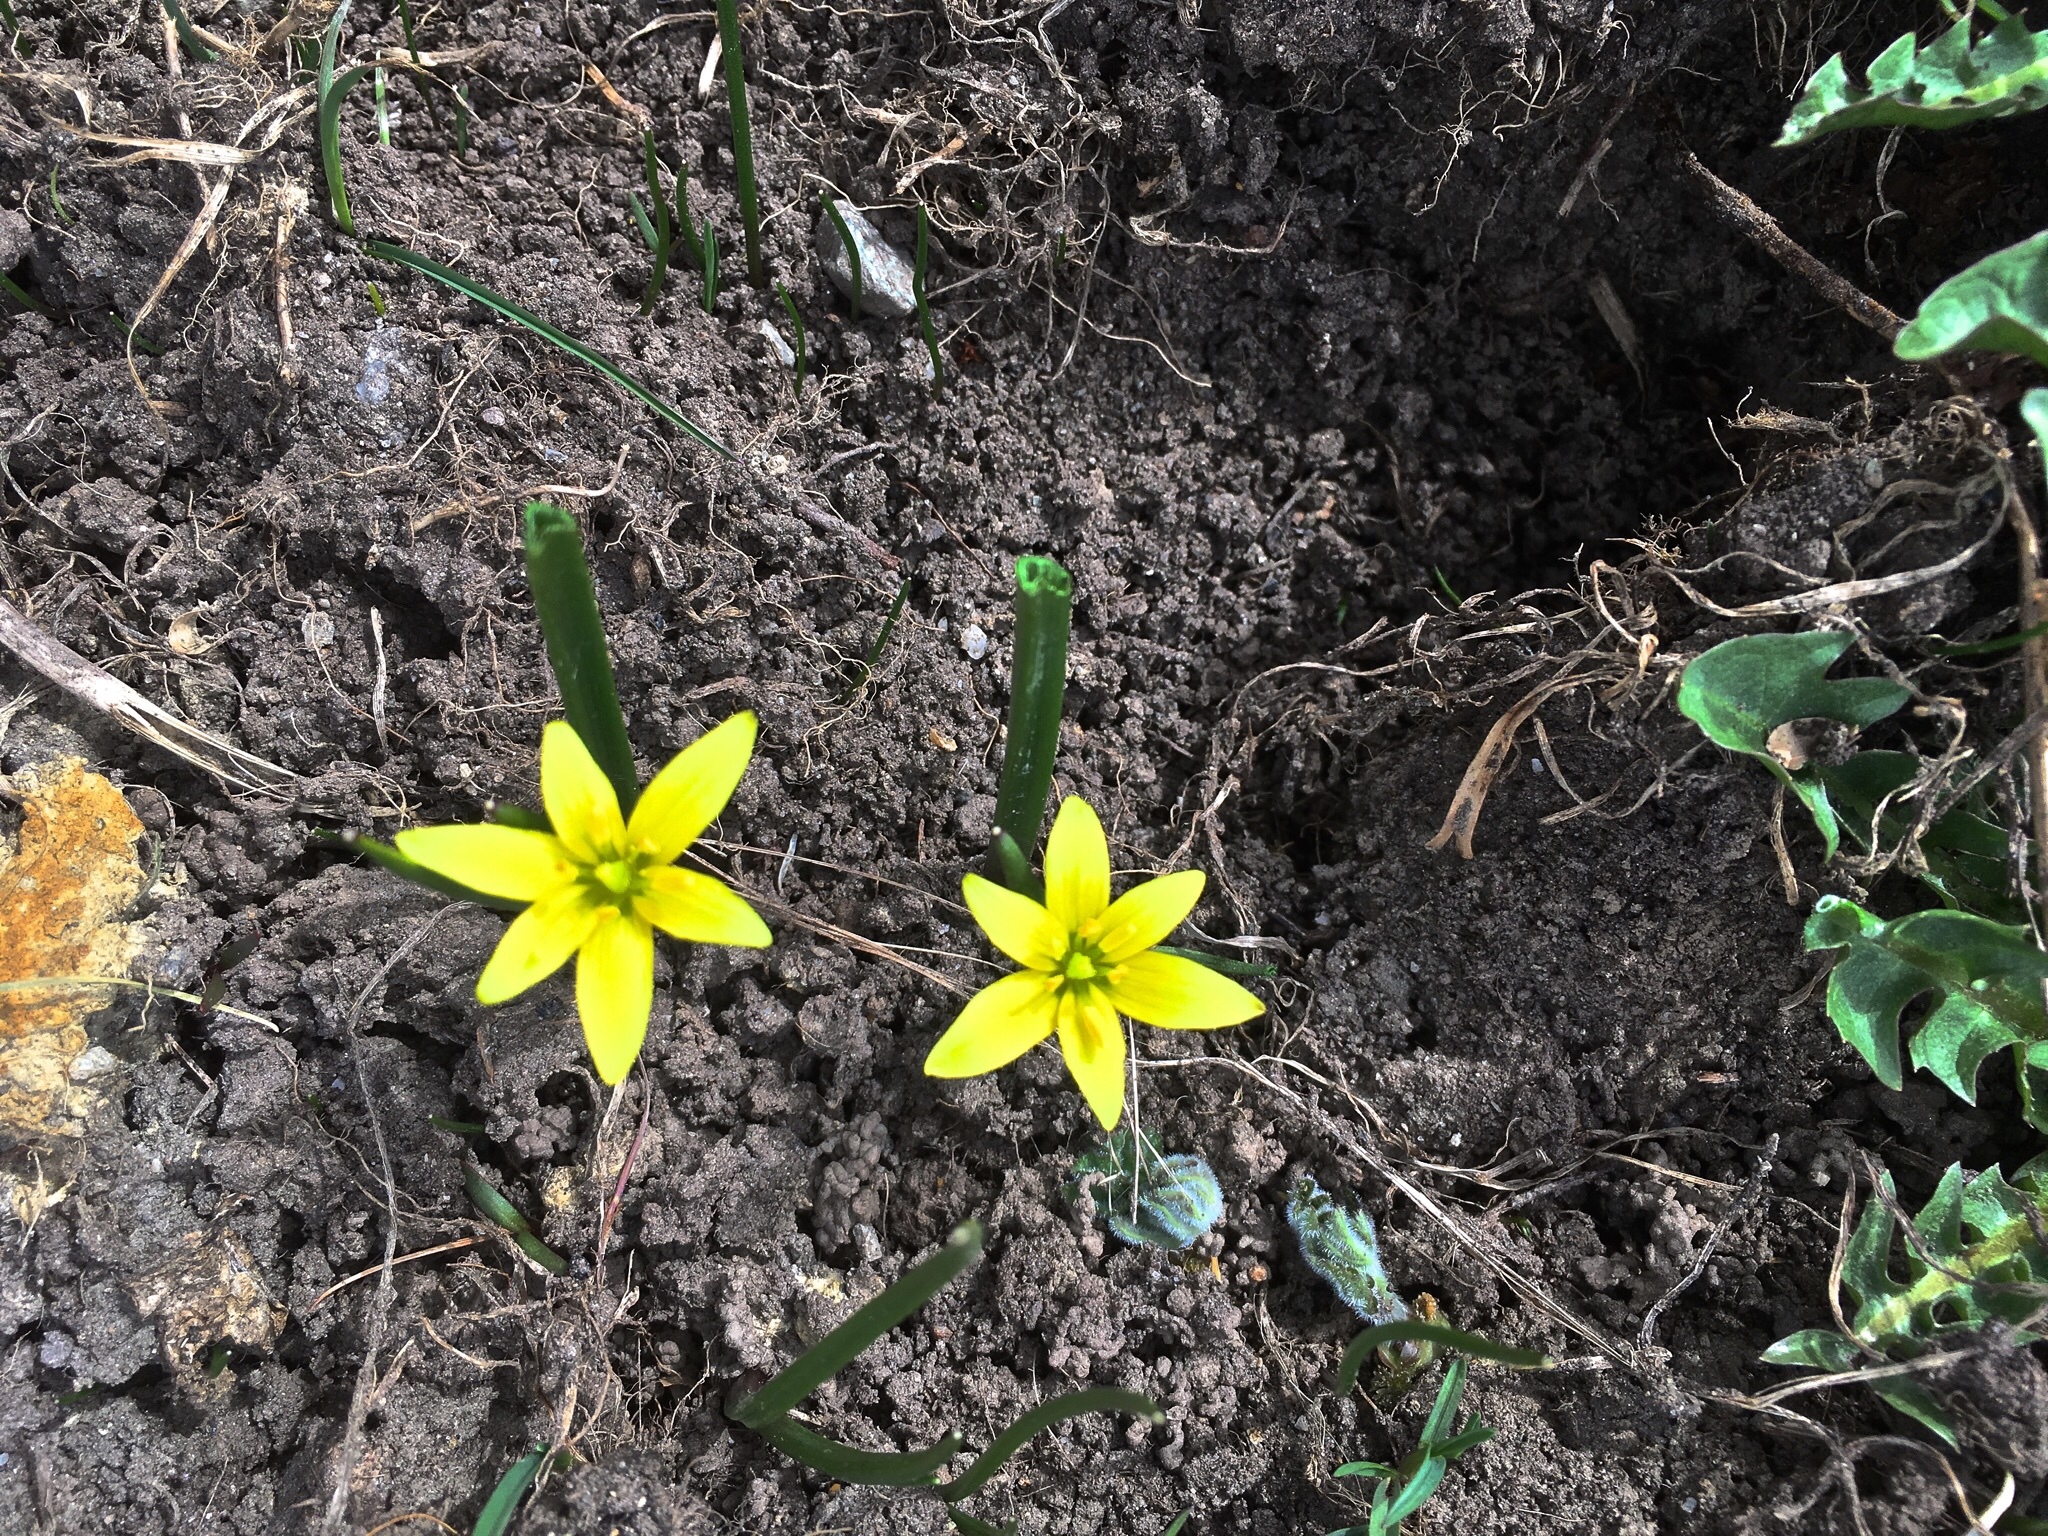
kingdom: Plantae
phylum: Tracheophyta
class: Liliopsida
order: Liliales
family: Liliaceae
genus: Gagea
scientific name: Gagea fragifera
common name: Lily
